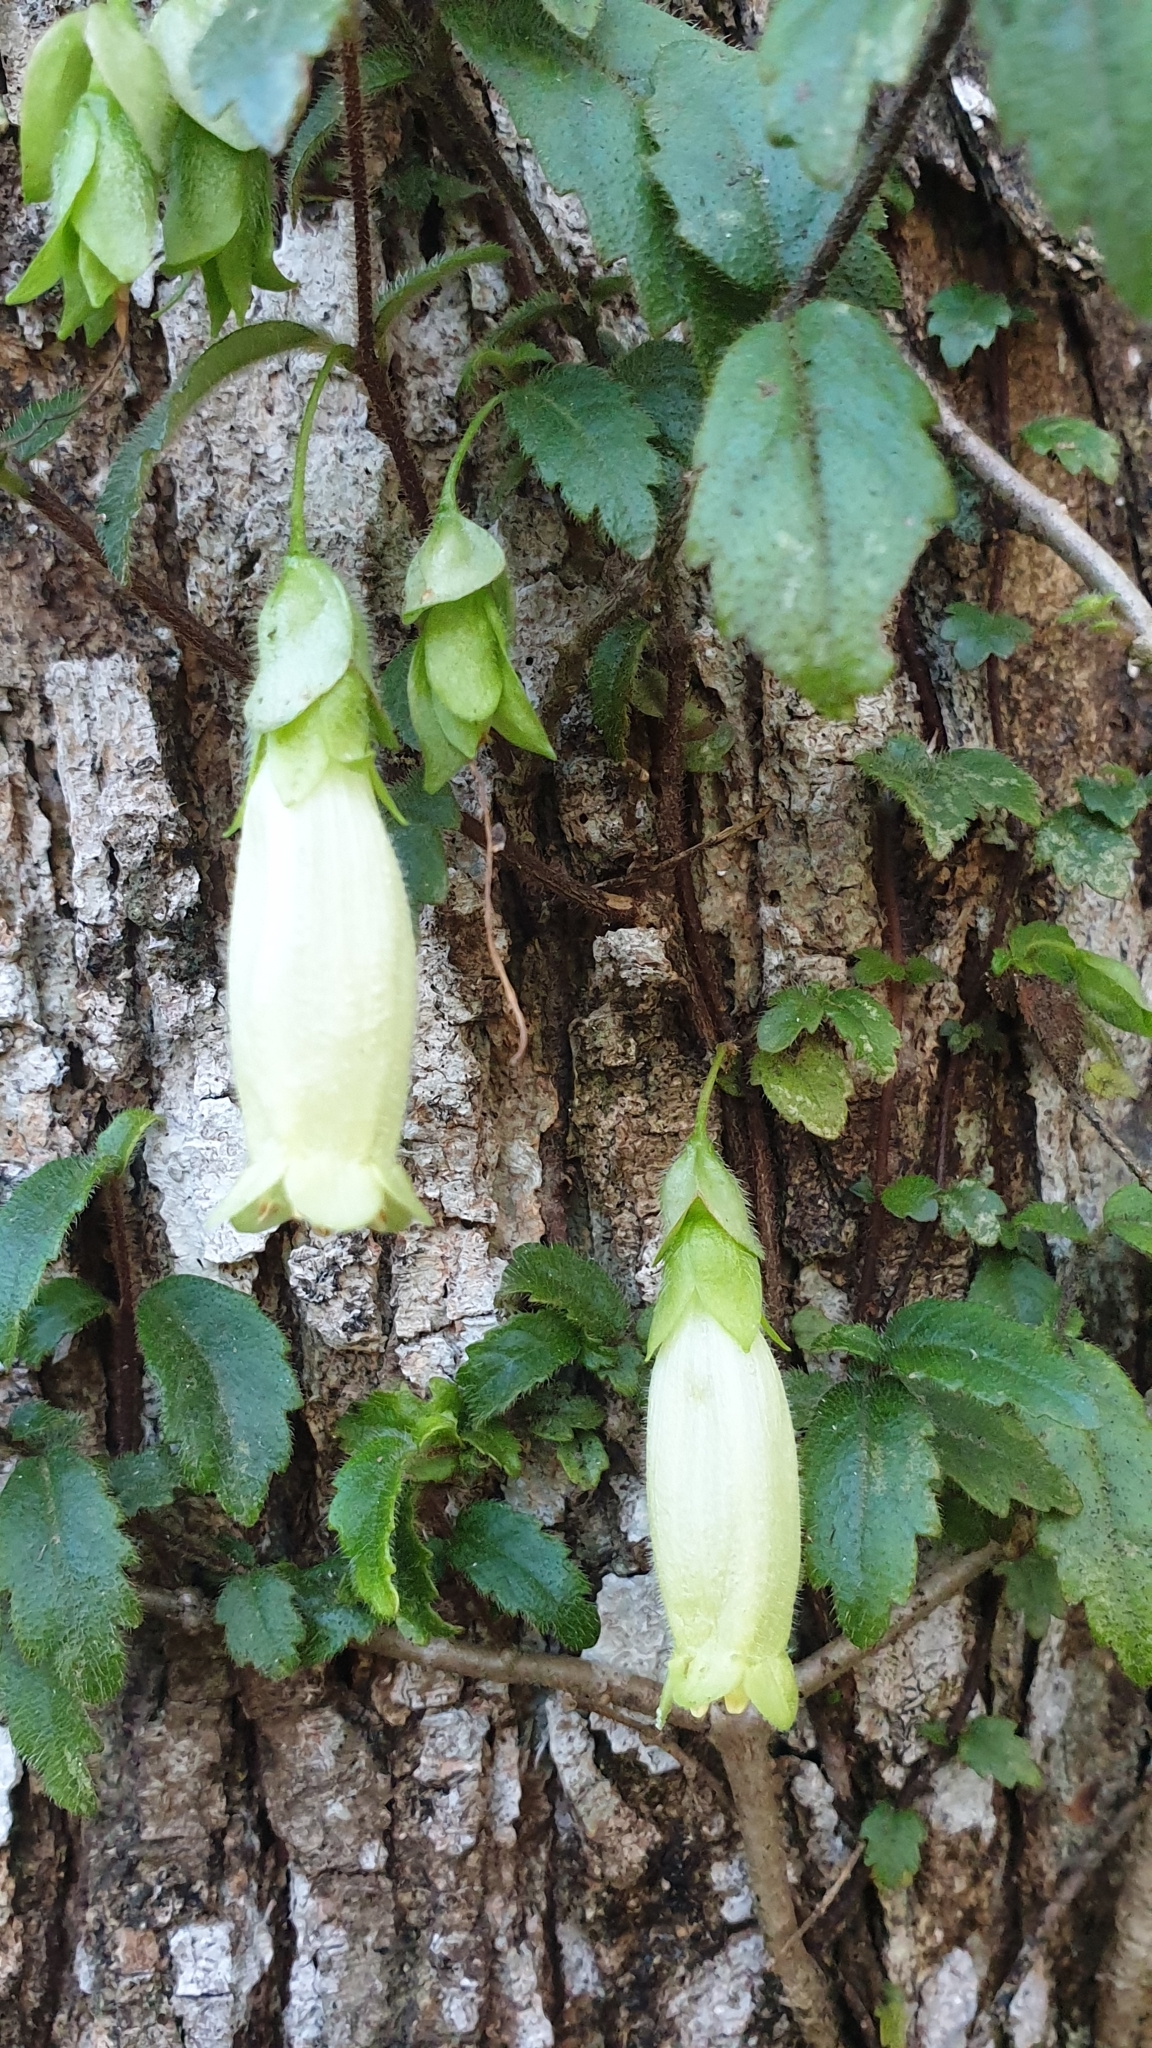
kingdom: Plantae
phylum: Tracheophyta
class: Magnoliopsida
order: Lamiales
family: Gesneriaceae
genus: Fieldia
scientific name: Fieldia australis
